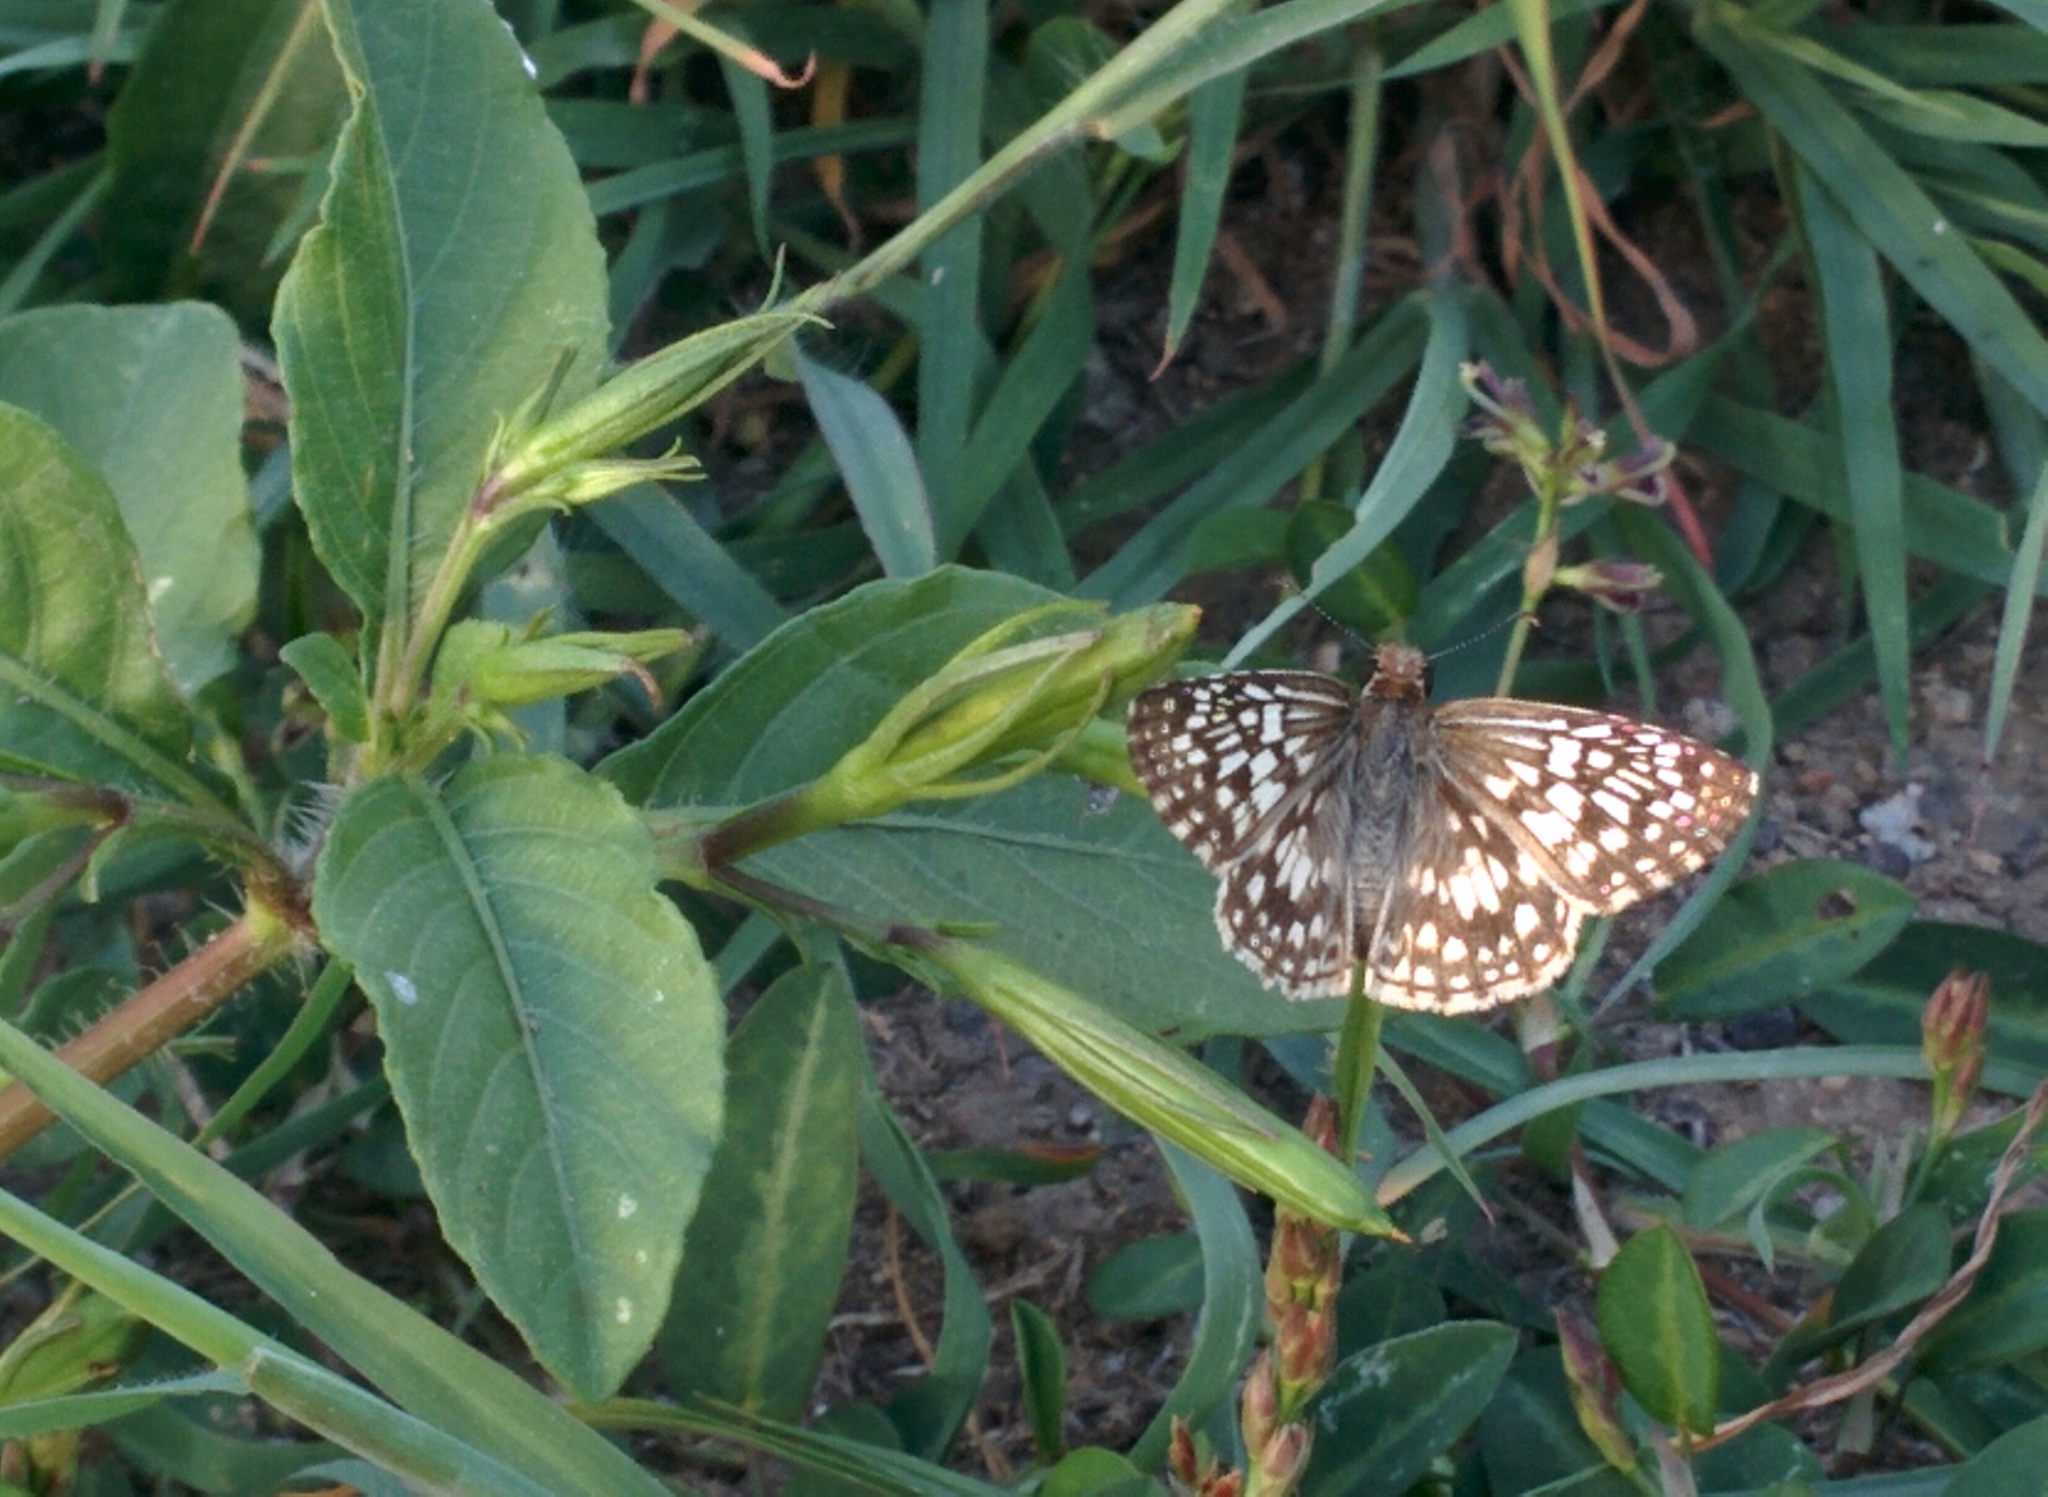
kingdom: Animalia
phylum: Arthropoda
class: Insecta
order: Lepidoptera
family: Hesperiidae
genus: Pyrgus
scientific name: Pyrgus oileus
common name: Tropical checkered-skipper
